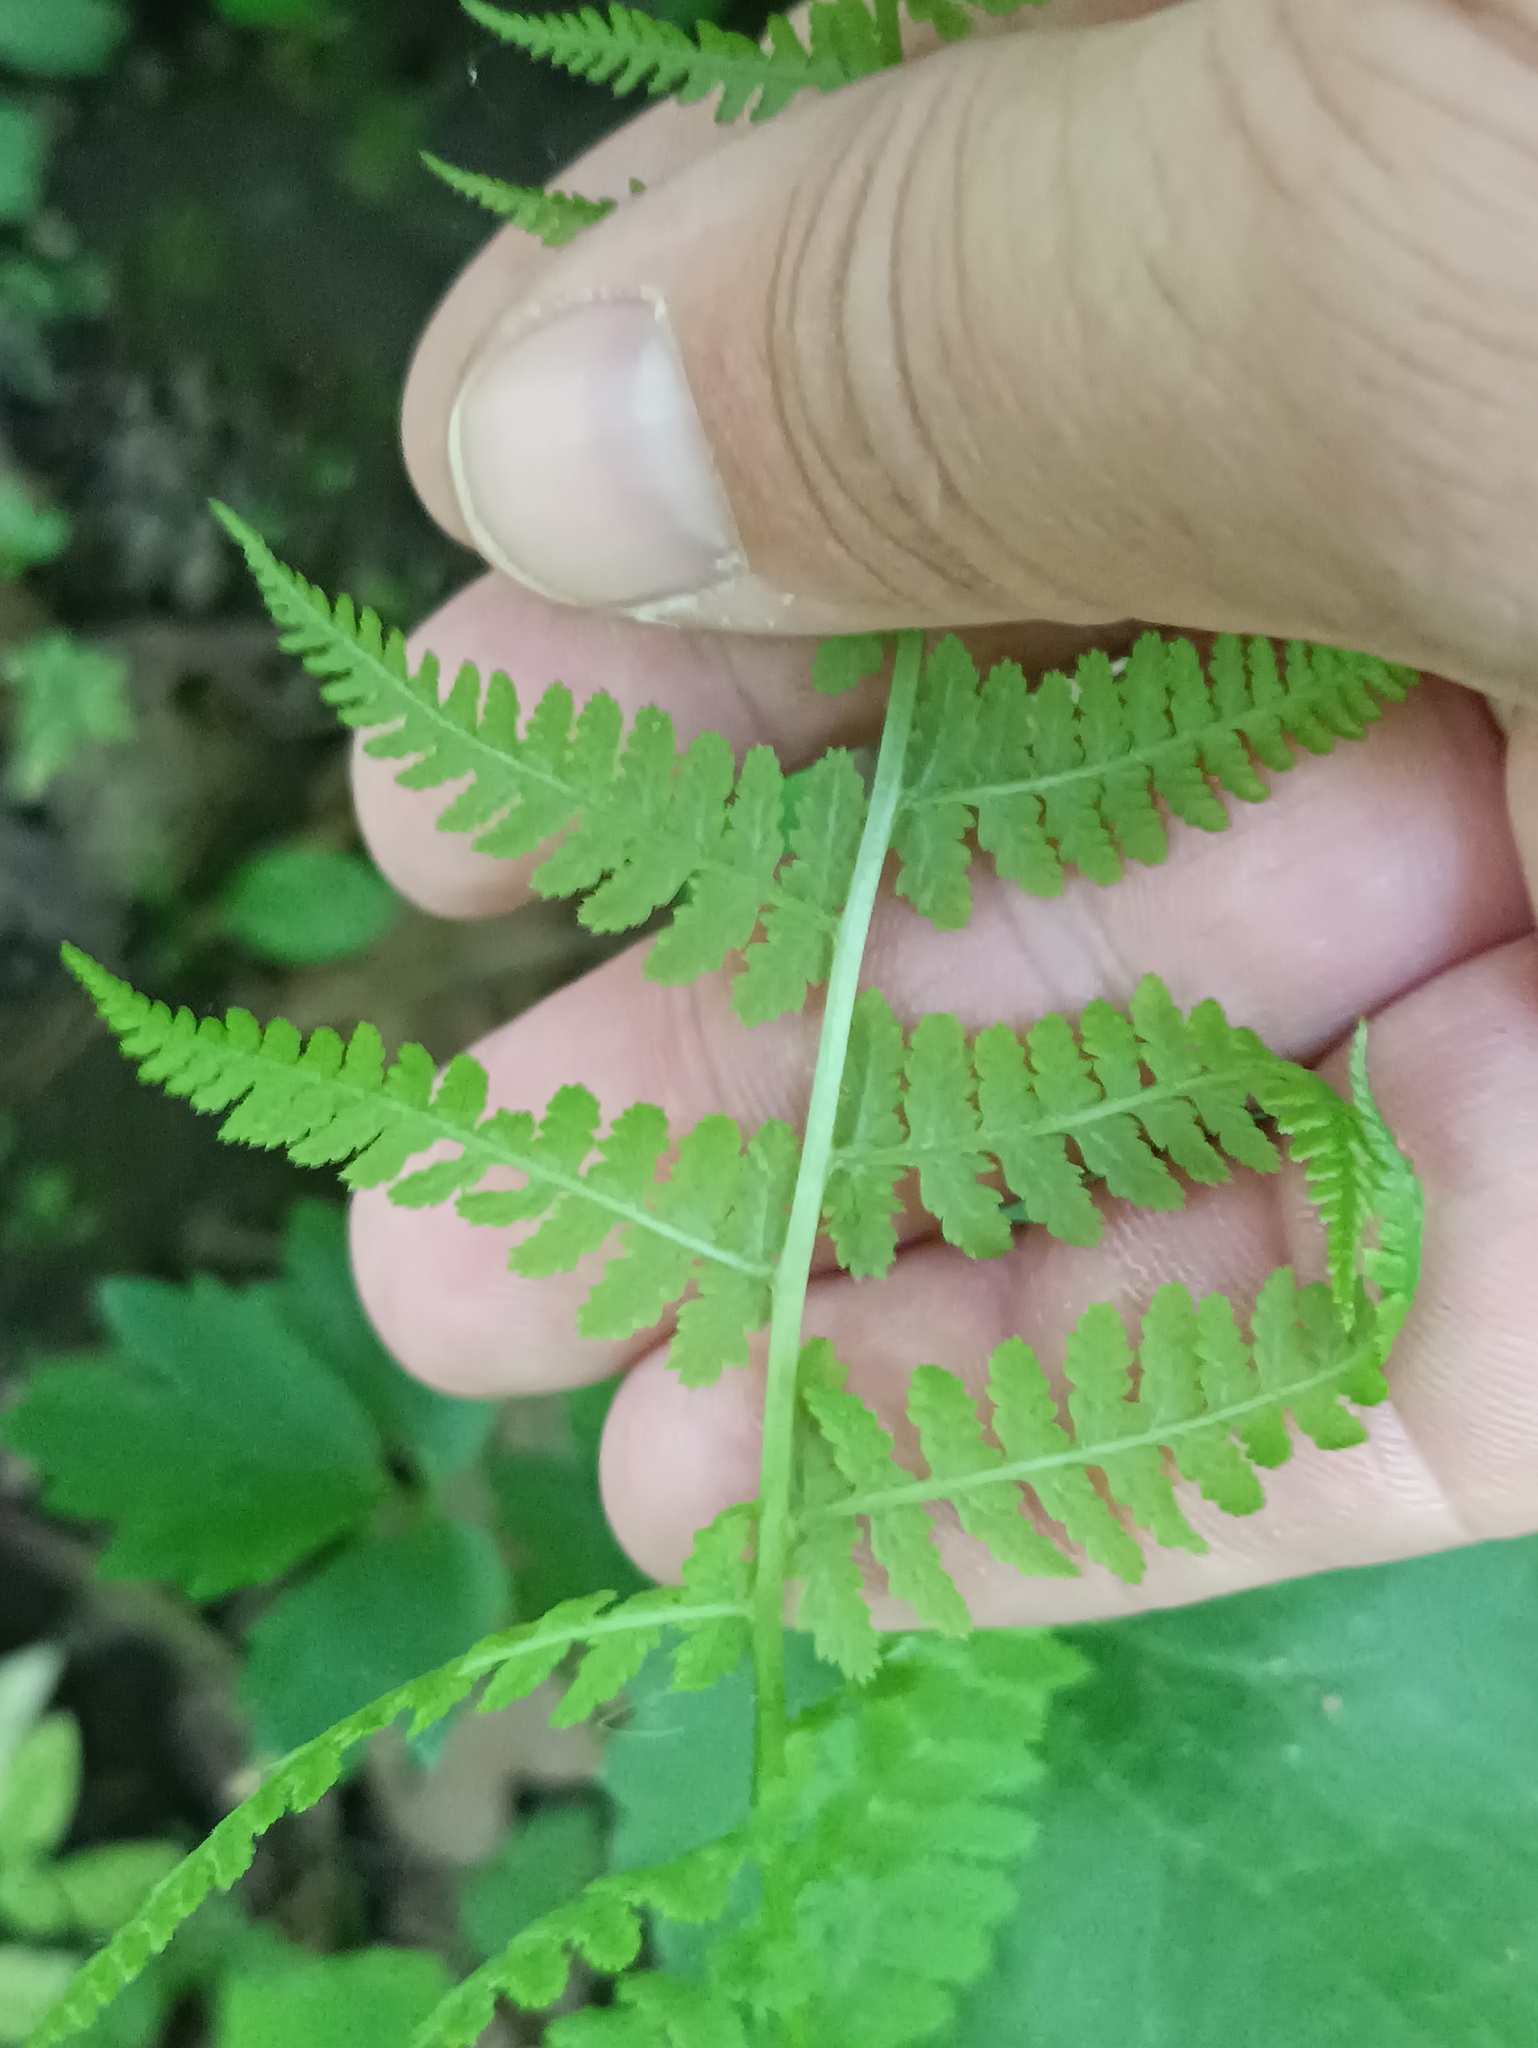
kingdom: Plantae
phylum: Tracheophyta
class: Polypodiopsida
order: Polypodiales
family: Athyriaceae
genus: Athyrium
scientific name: Athyrium filix-femina
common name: Lady fern
